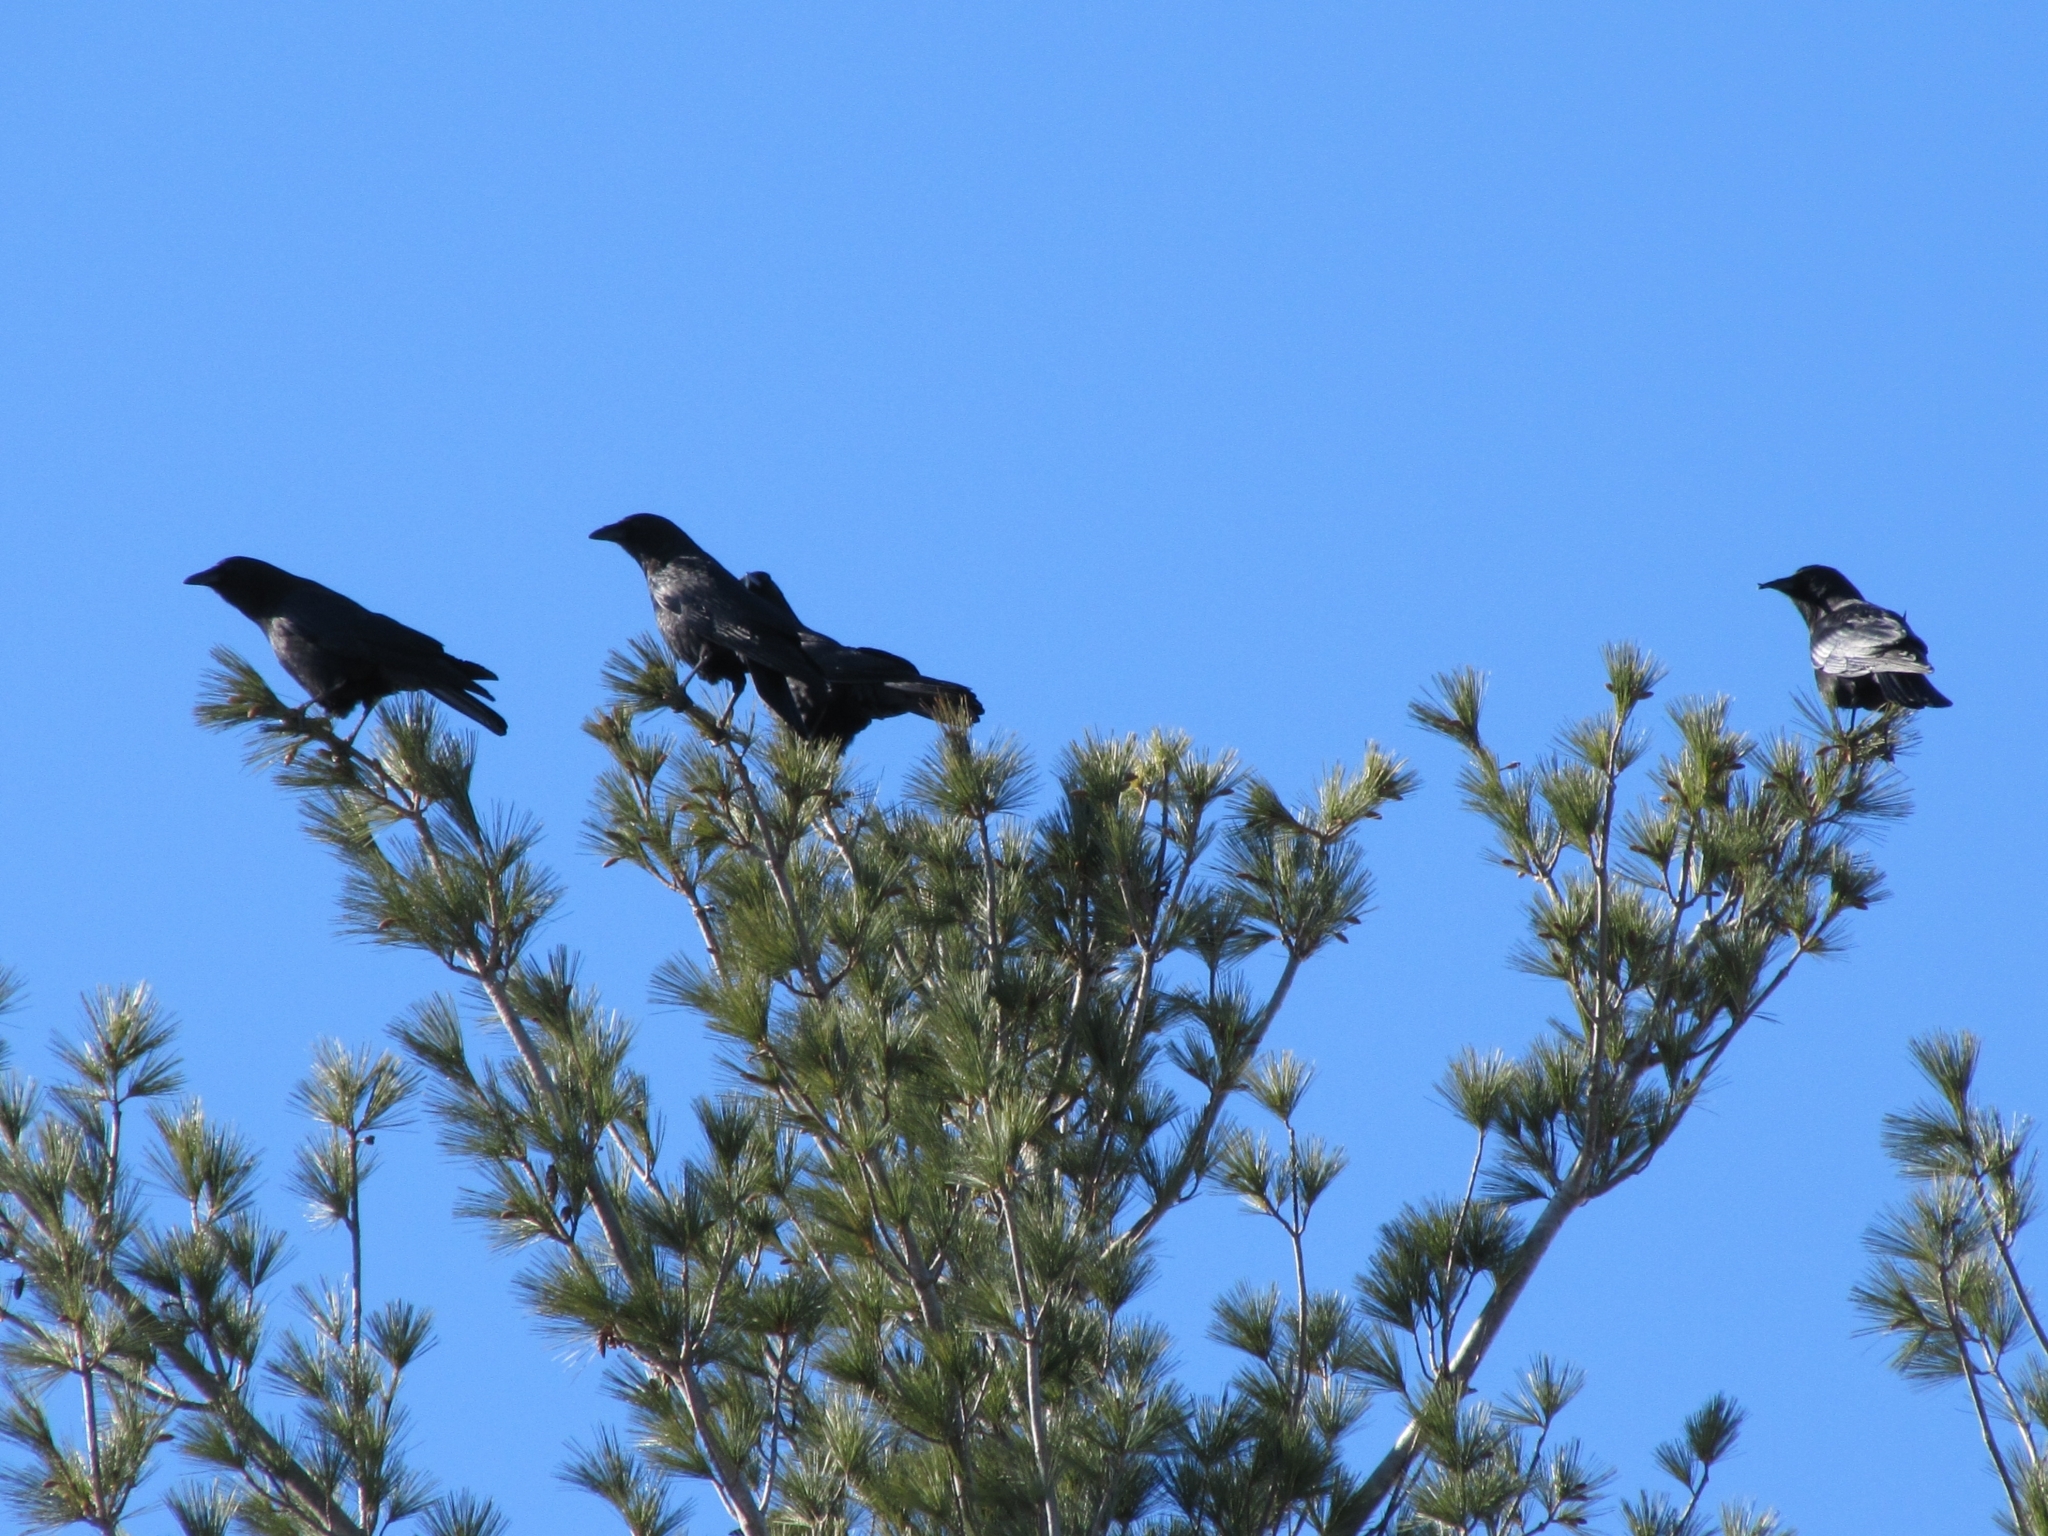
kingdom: Animalia
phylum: Chordata
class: Aves
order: Passeriformes
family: Corvidae
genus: Corvus
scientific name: Corvus brachyrhynchos
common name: American crow
